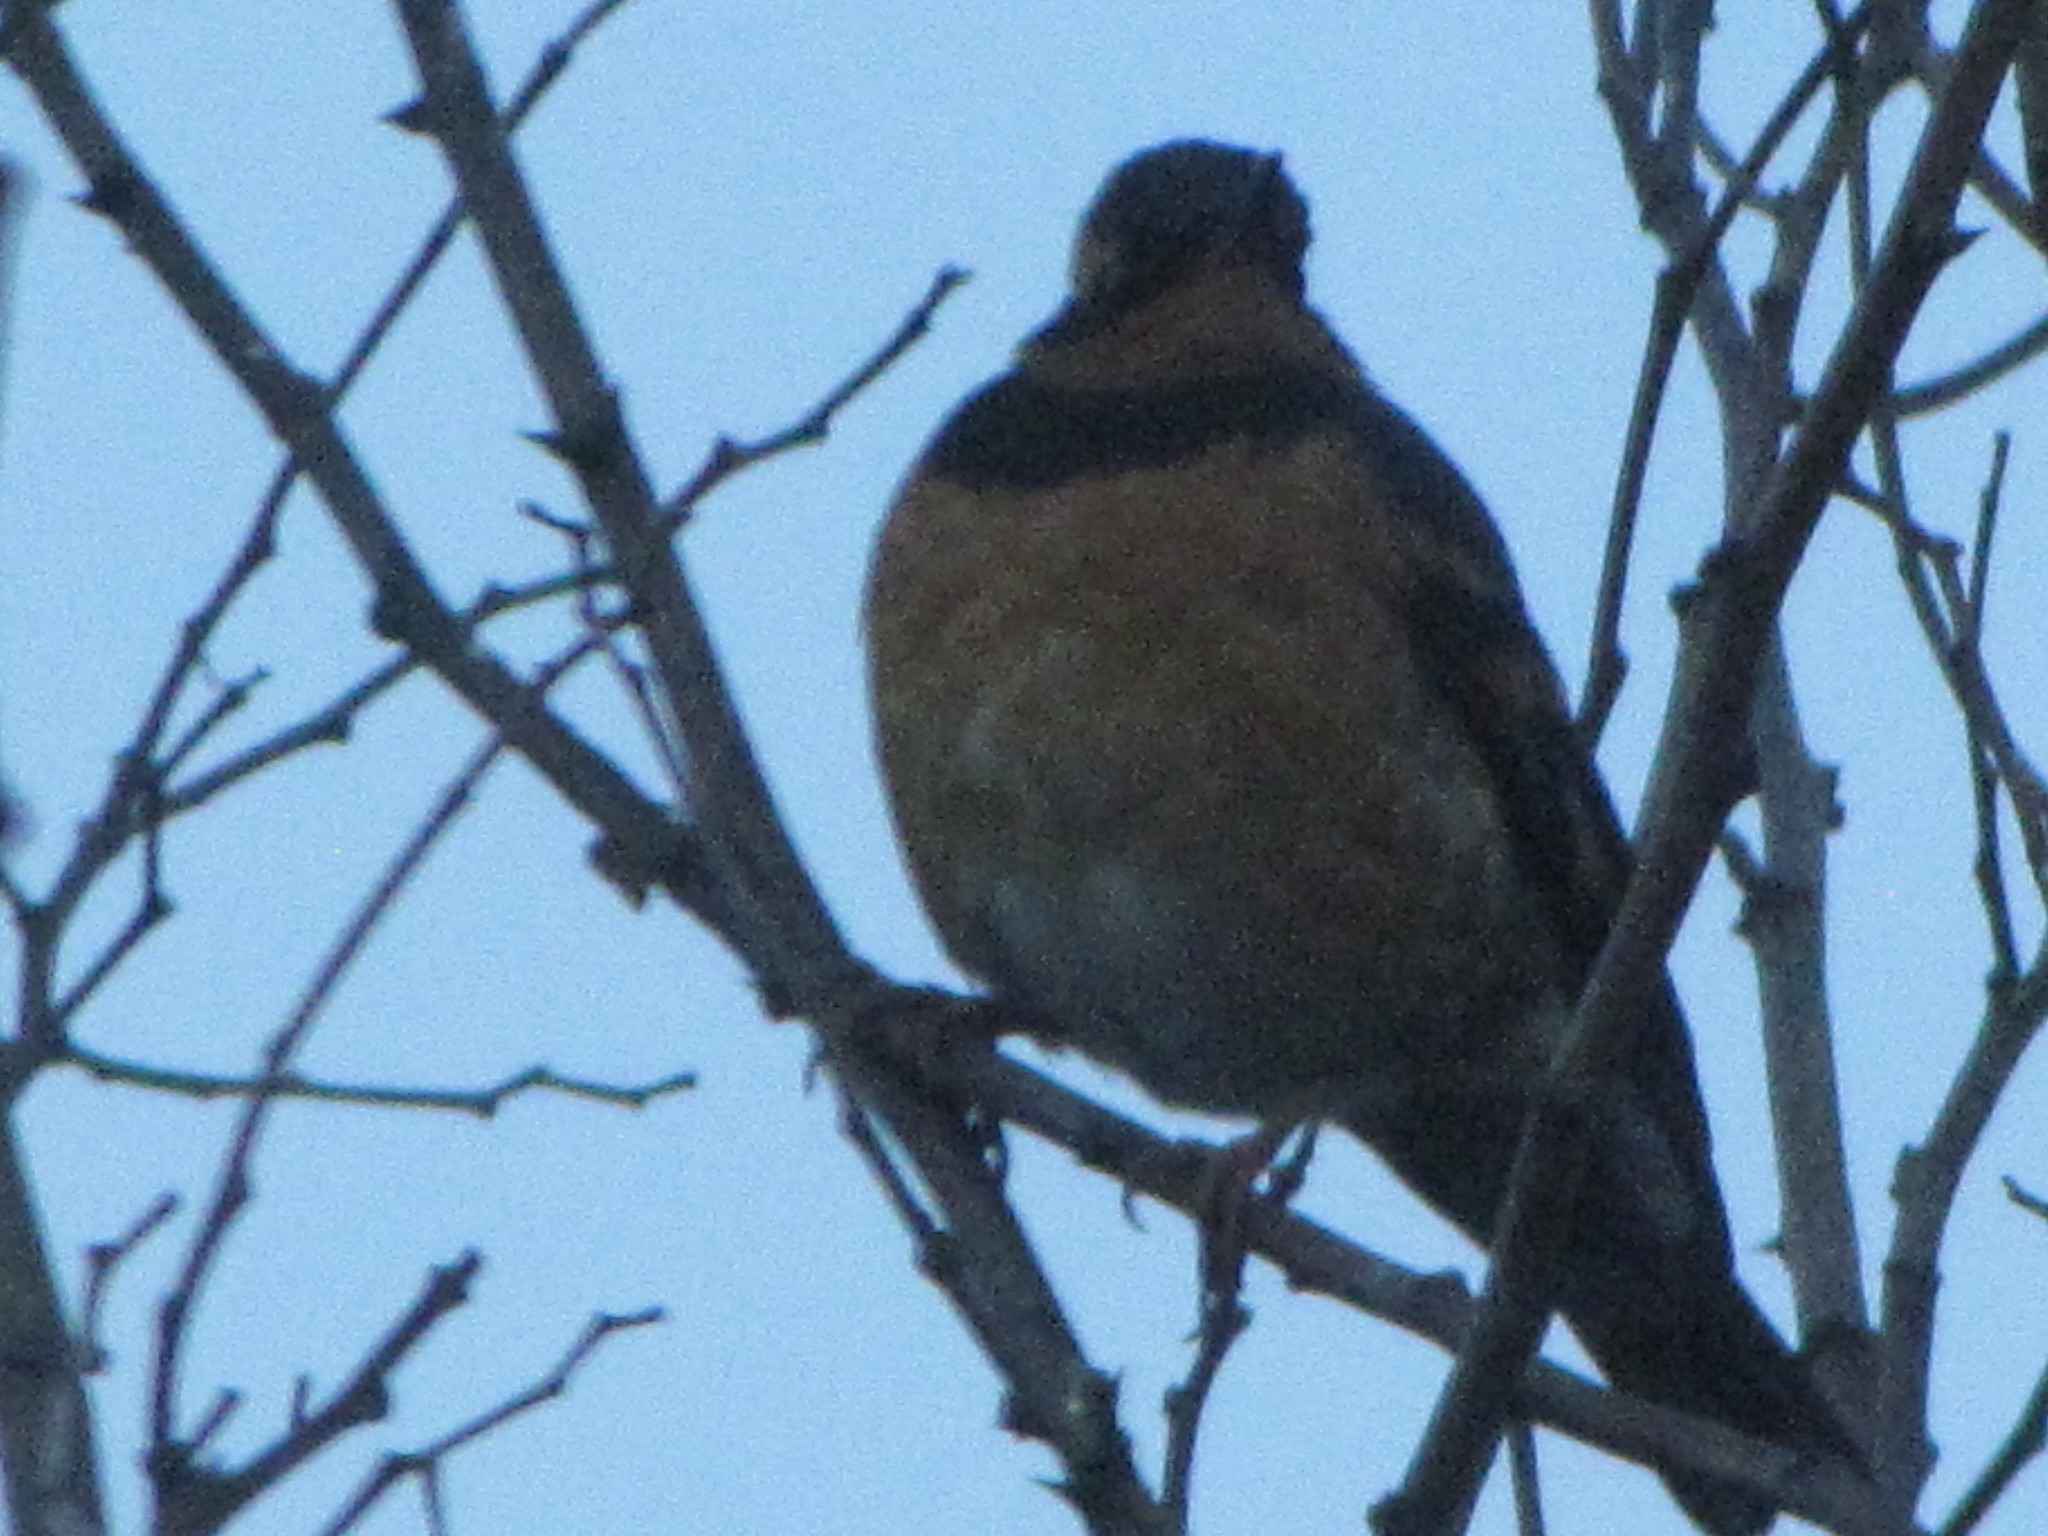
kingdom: Animalia
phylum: Chordata
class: Aves
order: Passeriformes
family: Turdidae
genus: Ixoreus
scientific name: Ixoreus naevius
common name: Varied thrush
